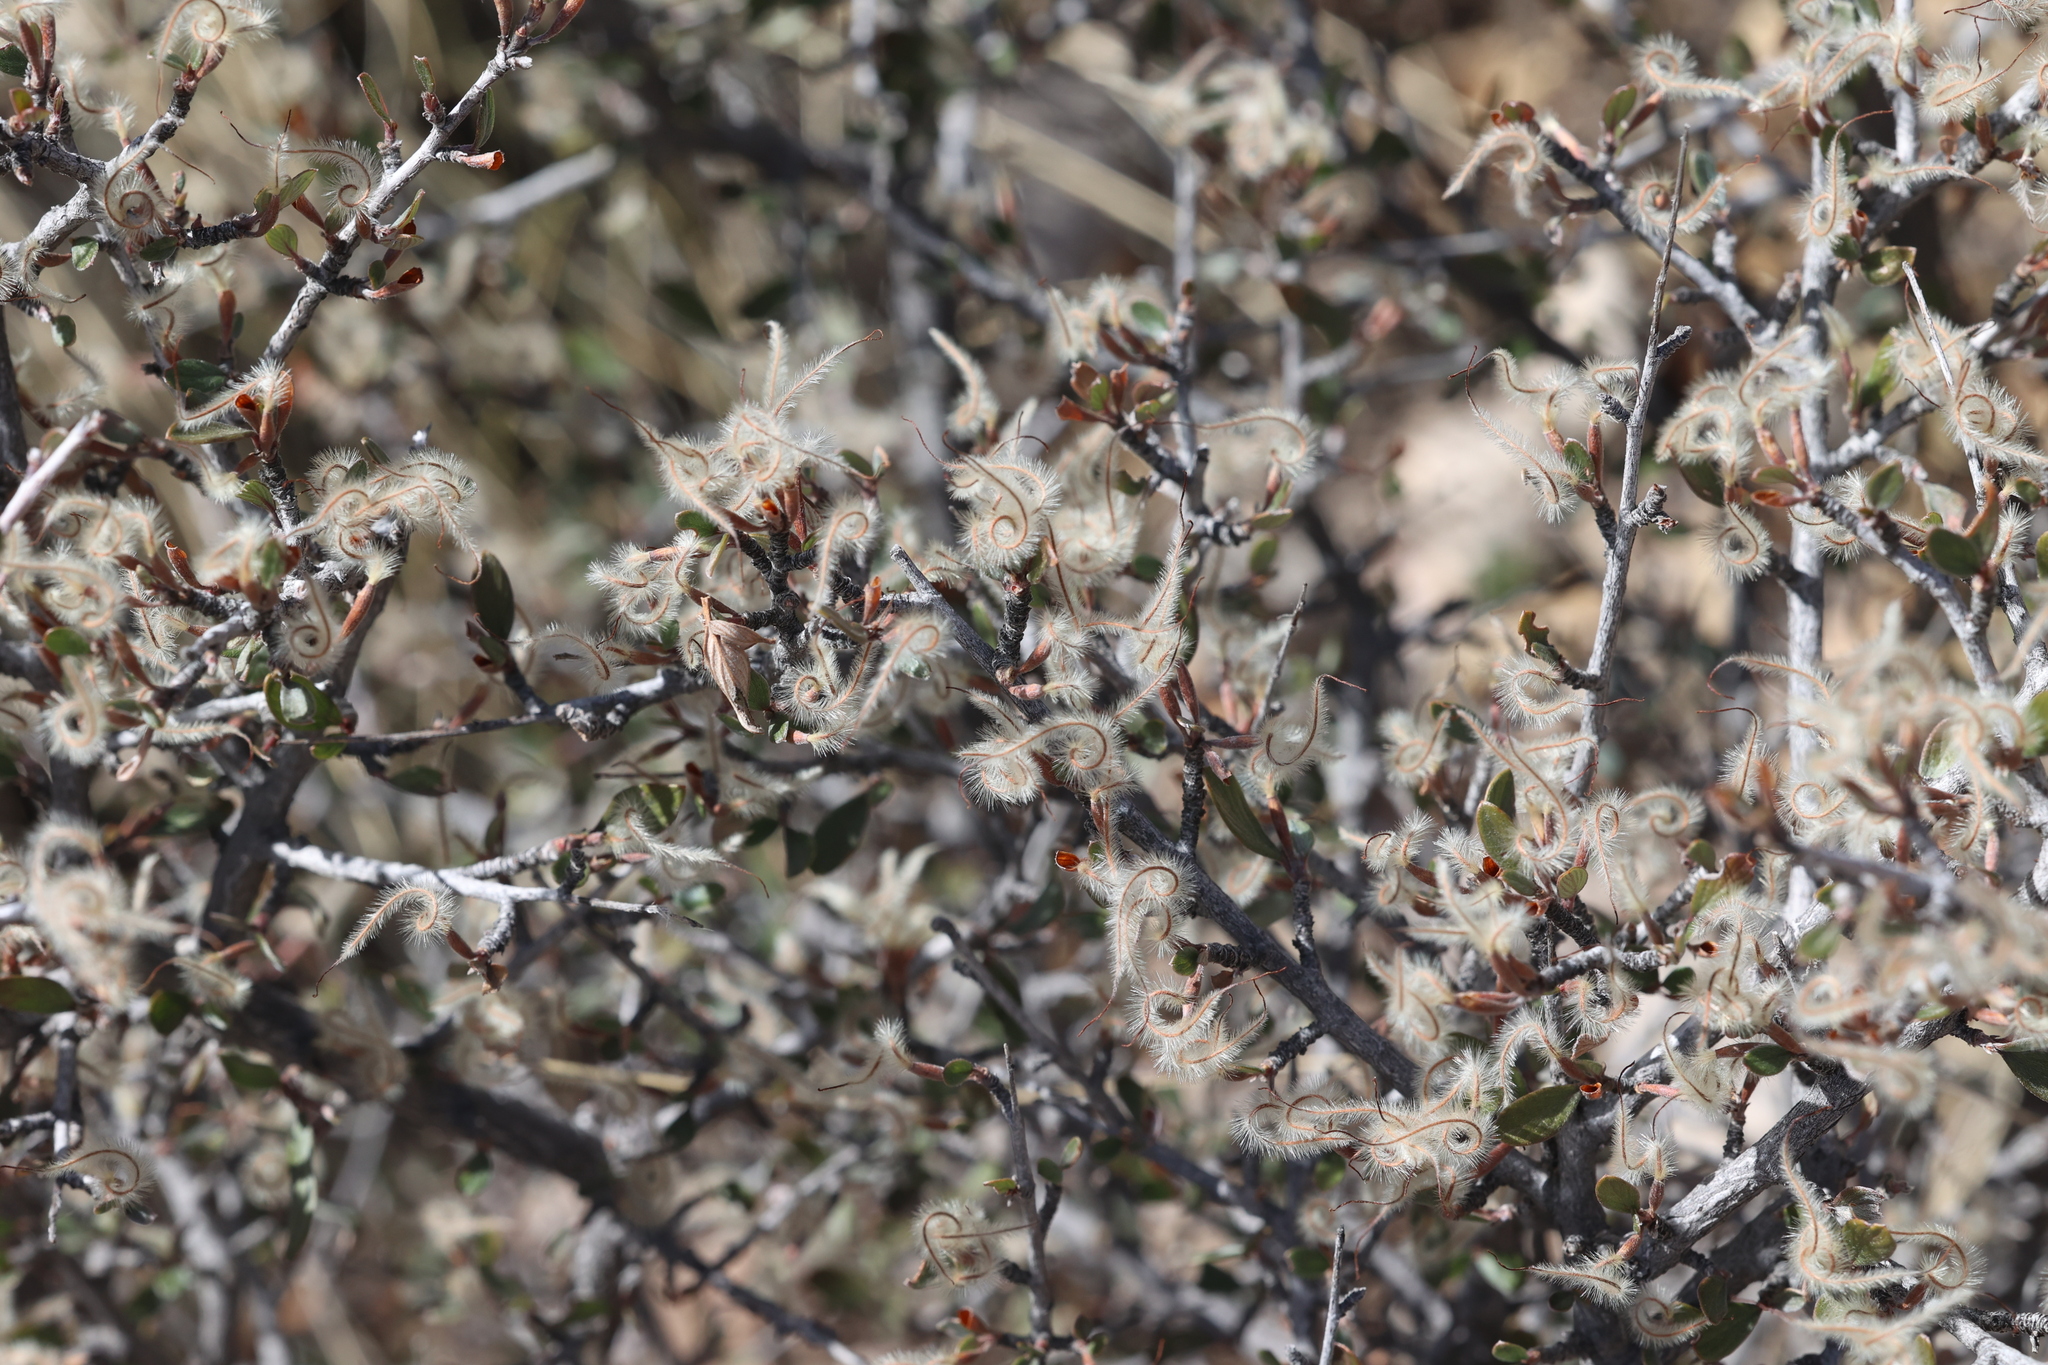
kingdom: Plantae
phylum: Tracheophyta
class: Magnoliopsida
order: Rosales
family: Rosaceae
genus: Cercocarpus
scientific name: Cercocarpus breviflorus
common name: Wright's mountain-mahogany
